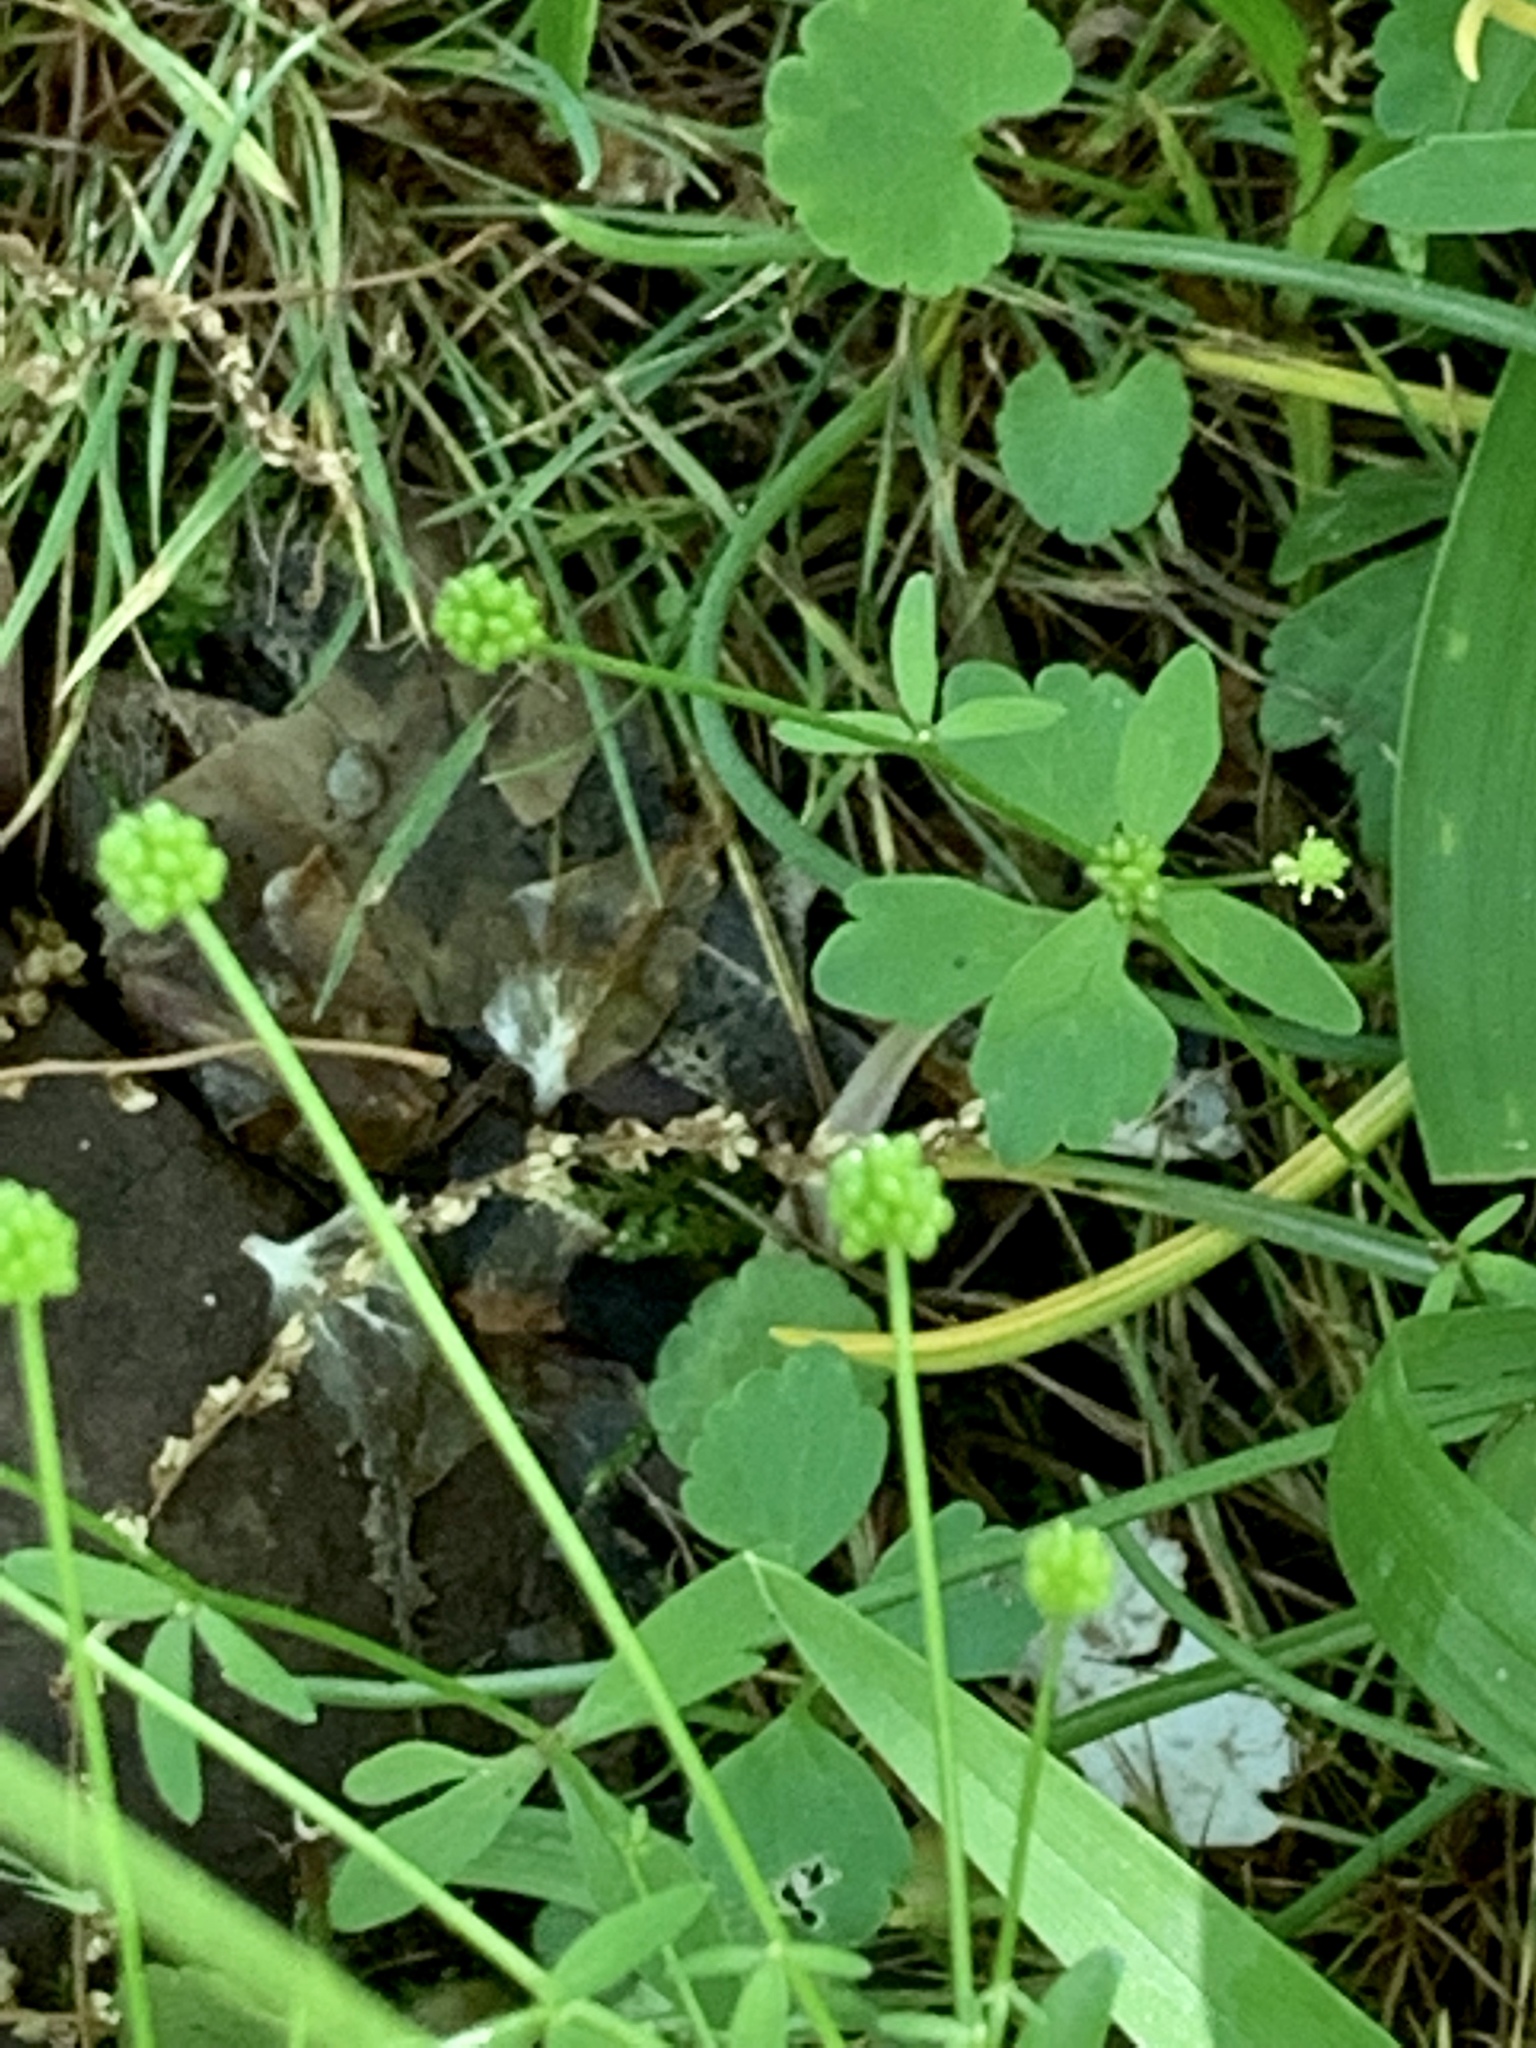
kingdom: Plantae
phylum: Tracheophyta
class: Magnoliopsida
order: Ranunculales
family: Ranunculaceae
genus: Ranunculus
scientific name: Ranunculus abortivus
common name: Early wood buttercup
